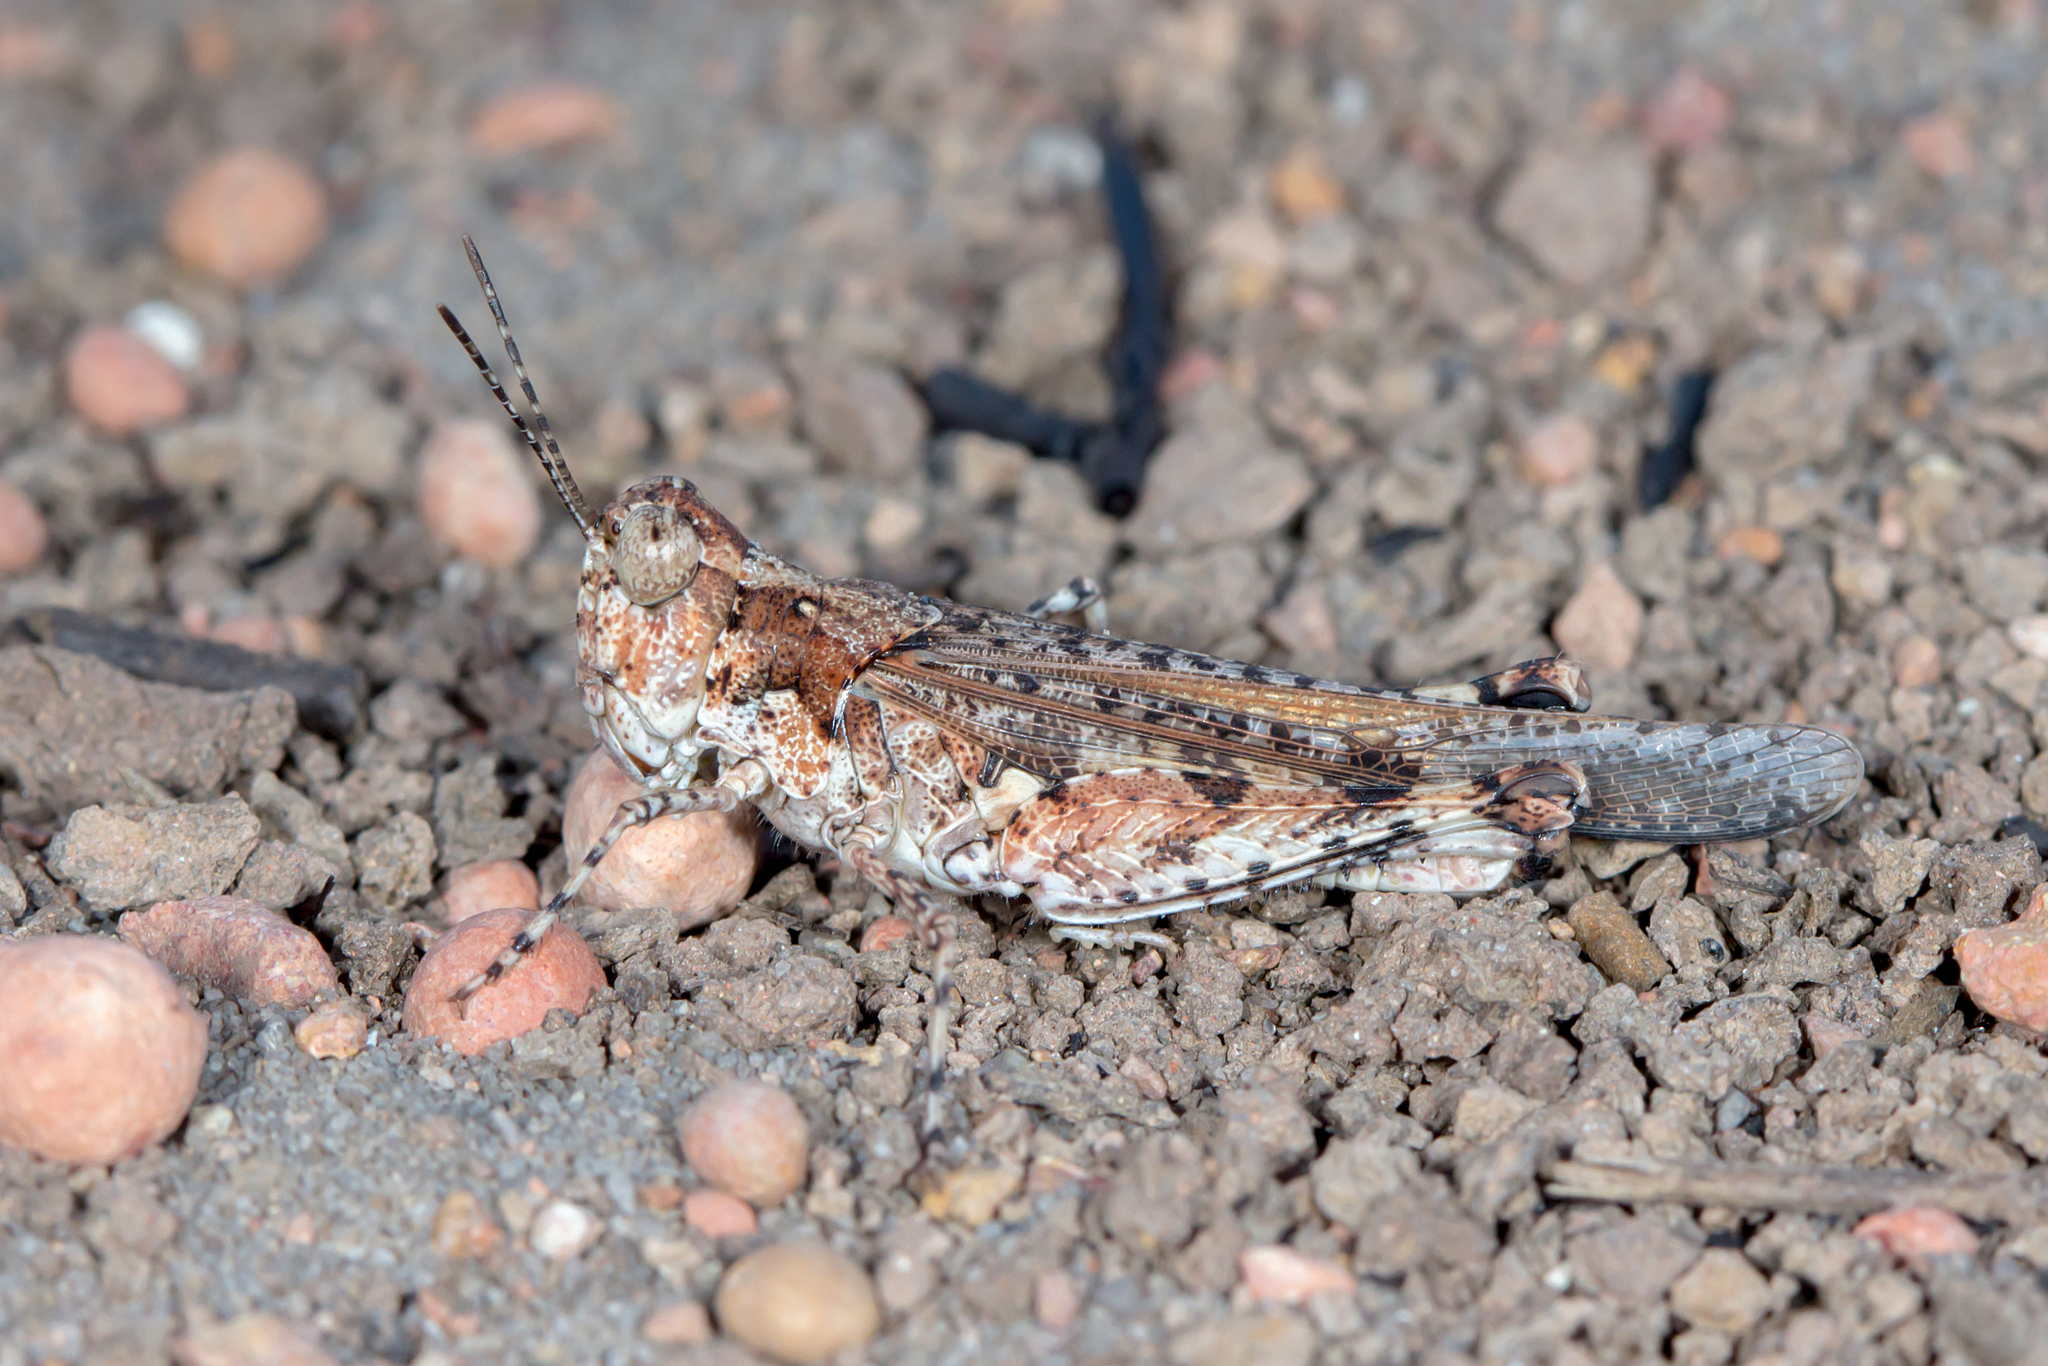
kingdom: Animalia
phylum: Arthropoda
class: Insecta
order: Orthoptera
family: Acrididae
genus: Pycnostictus
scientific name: Pycnostictus seriatus
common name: Common bandwing
